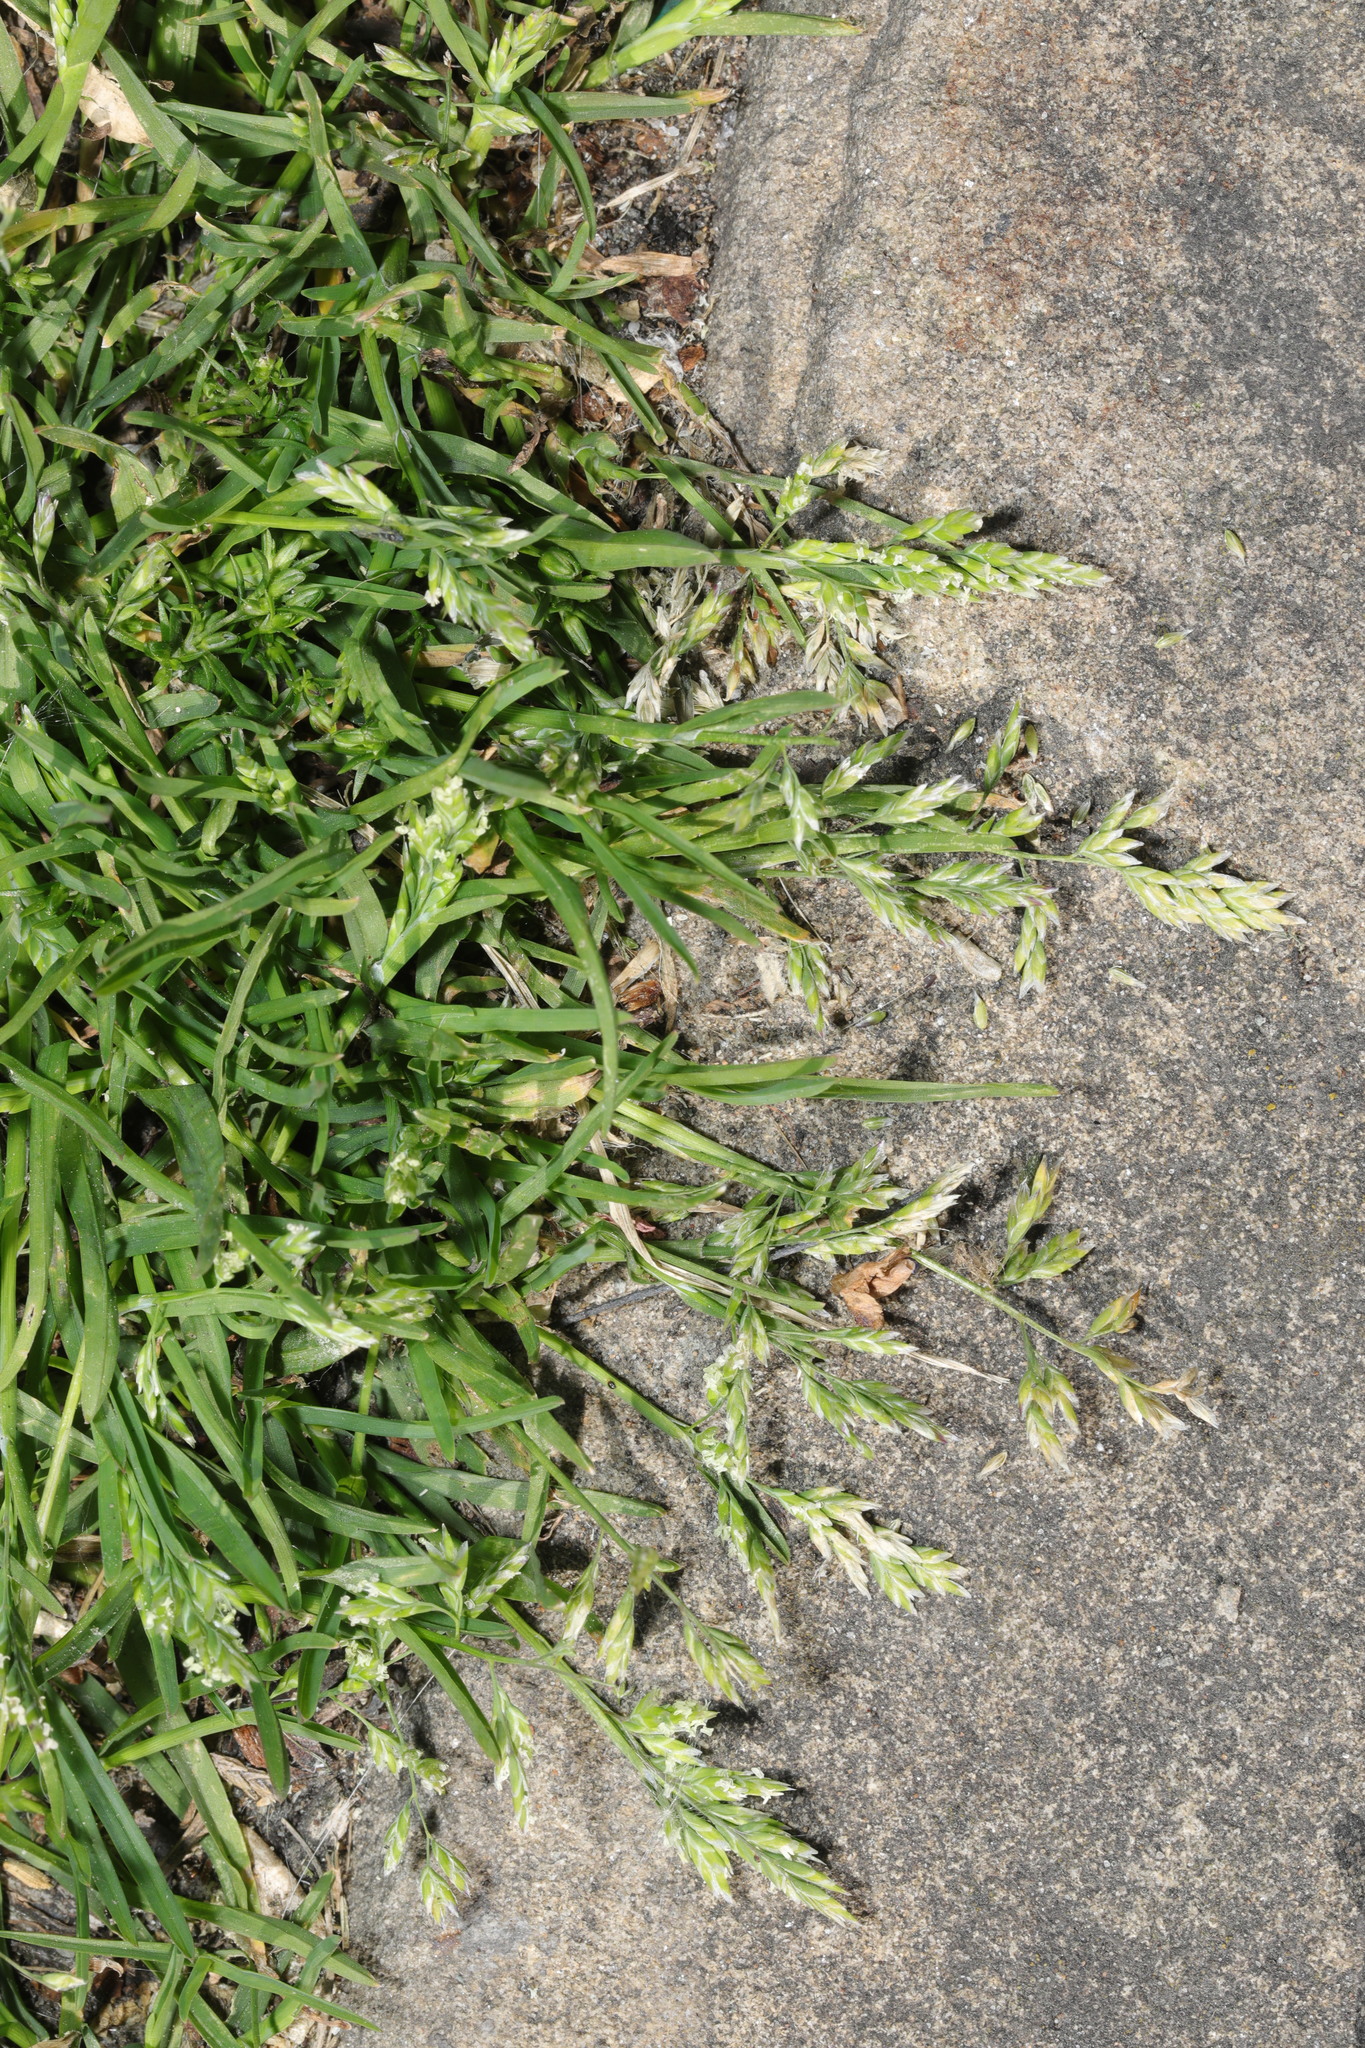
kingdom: Plantae
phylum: Tracheophyta
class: Liliopsida
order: Poales
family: Poaceae
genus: Poa
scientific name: Poa annua
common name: Annual bluegrass
